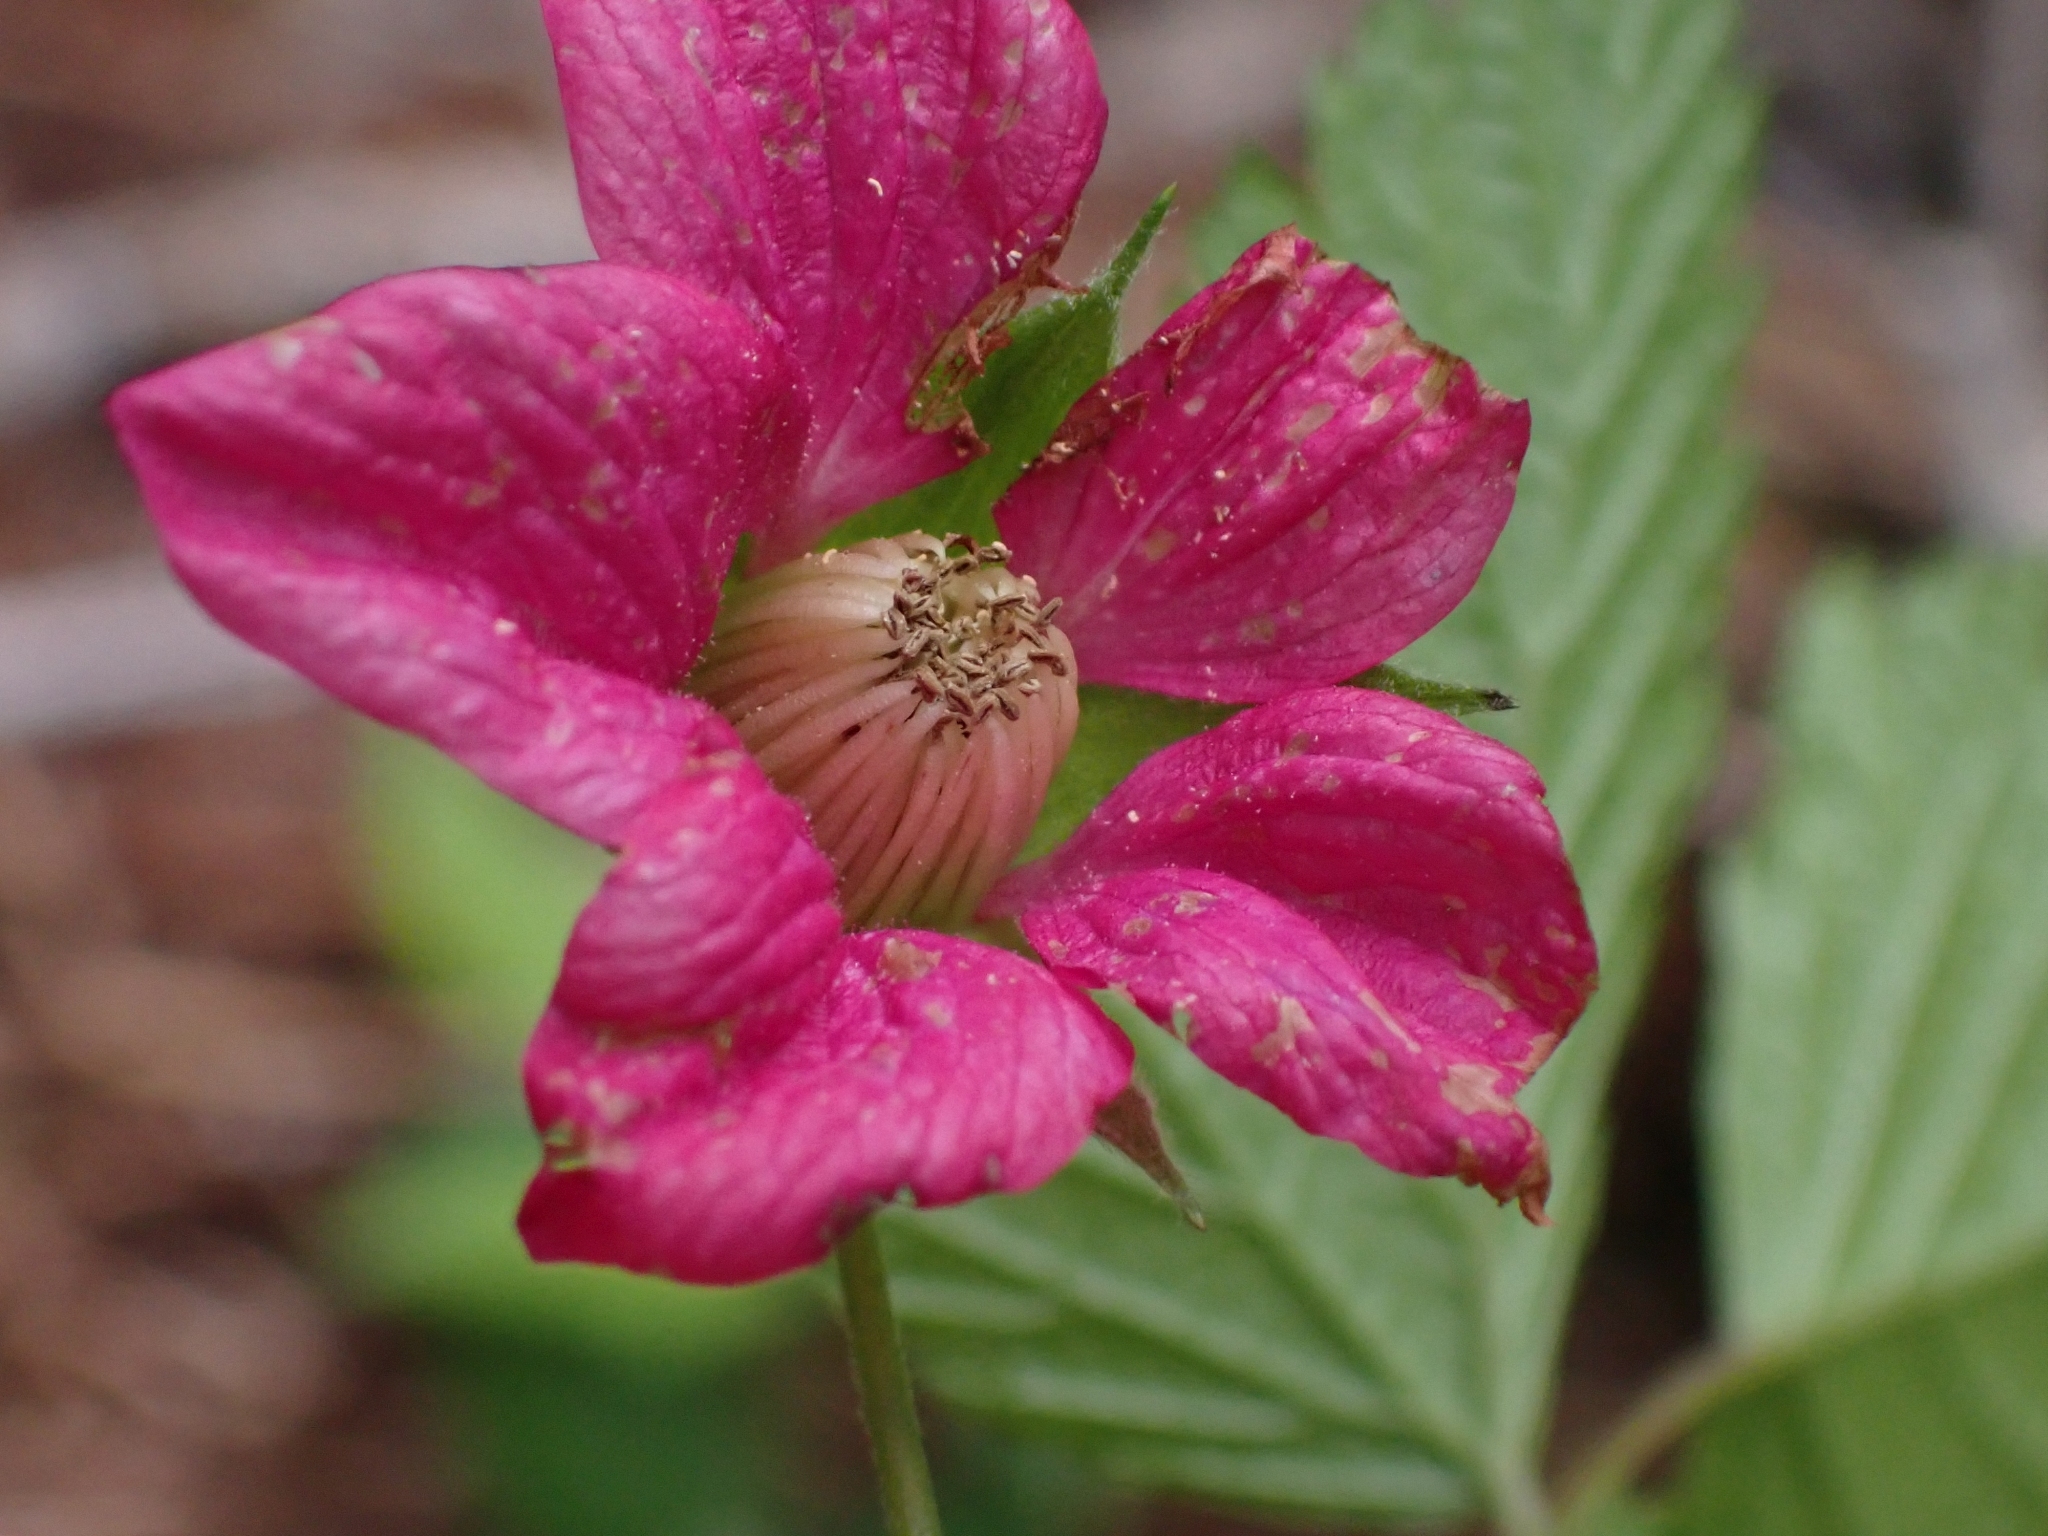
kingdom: Plantae
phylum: Tracheophyta
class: Magnoliopsida
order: Rosales
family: Rosaceae
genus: Rubus
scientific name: Rubus spectabilis
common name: Salmonberry
